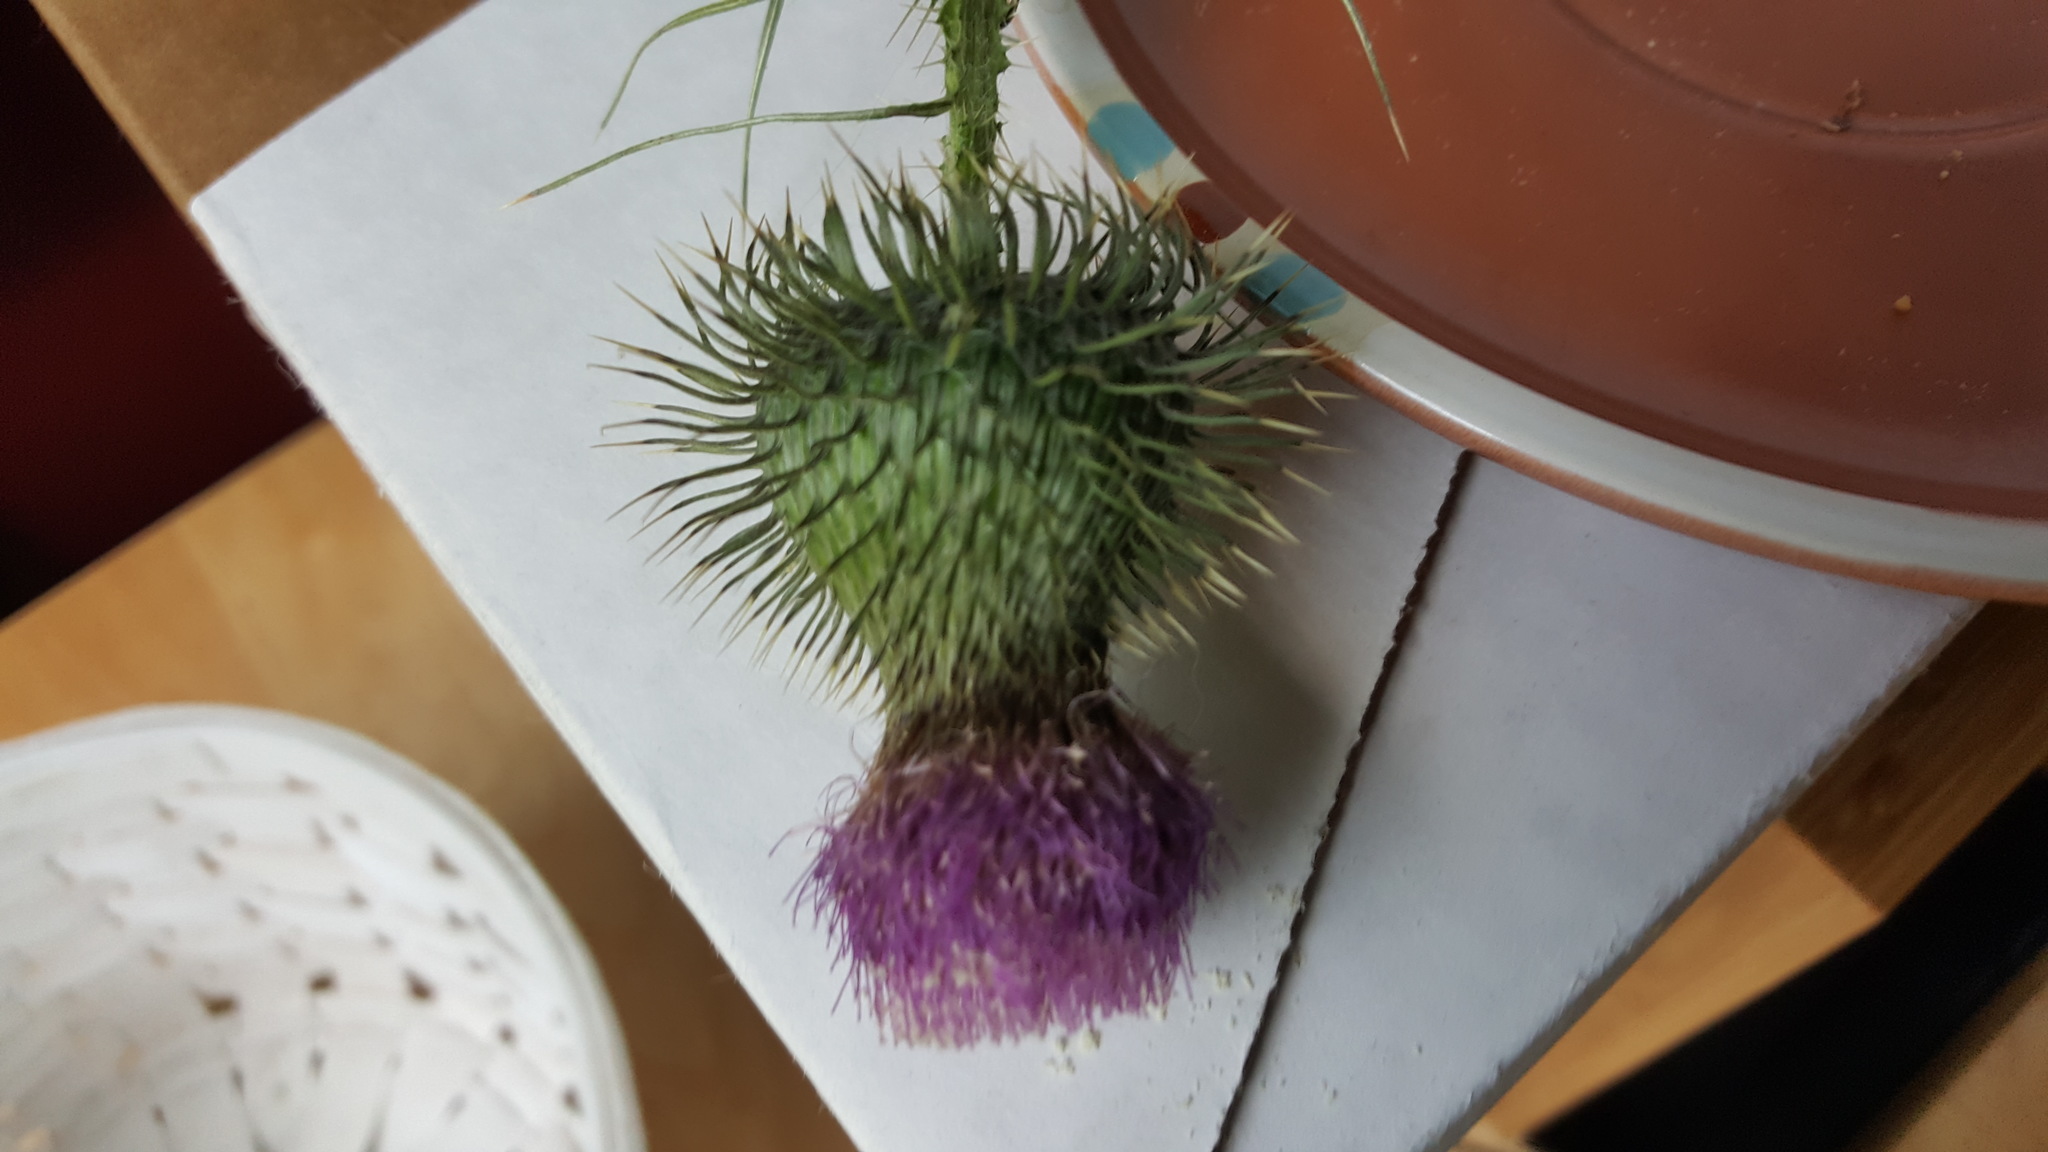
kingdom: Plantae
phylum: Tracheophyta
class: Magnoliopsida
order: Asterales
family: Asteraceae
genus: Cirsium
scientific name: Cirsium vulgare
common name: Bull thistle
